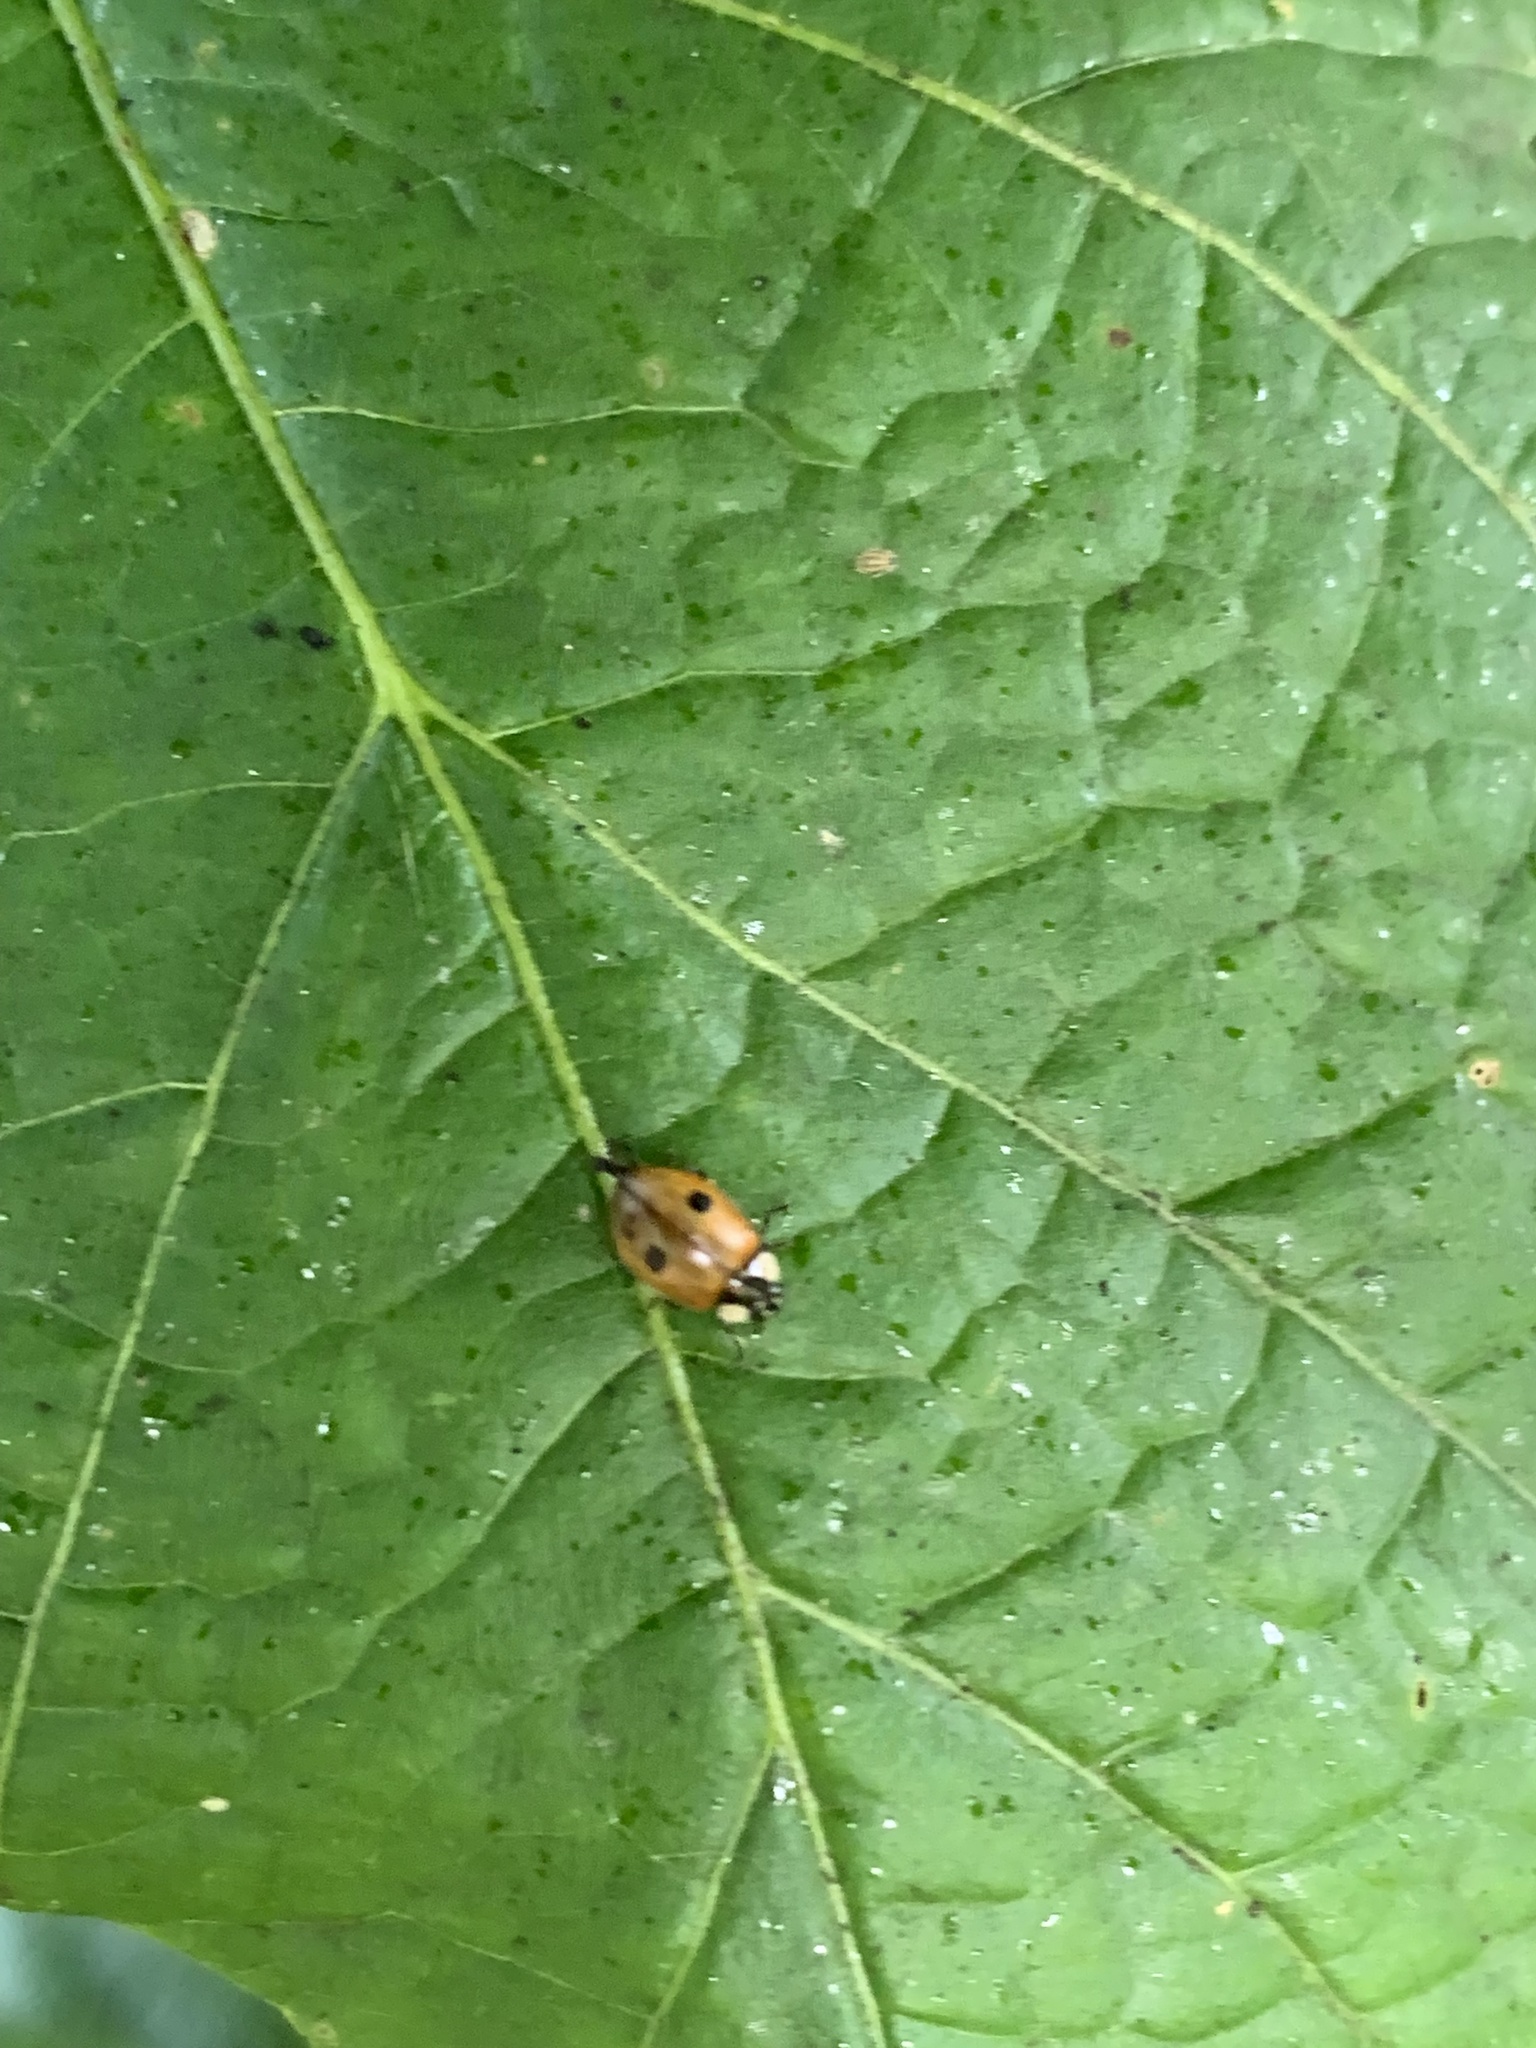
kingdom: Animalia
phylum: Arthropoda
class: Insecta
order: Coleoptera
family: Coccinellidae
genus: Adalia
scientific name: Adalia bipunctata
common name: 2-spot ladybird
